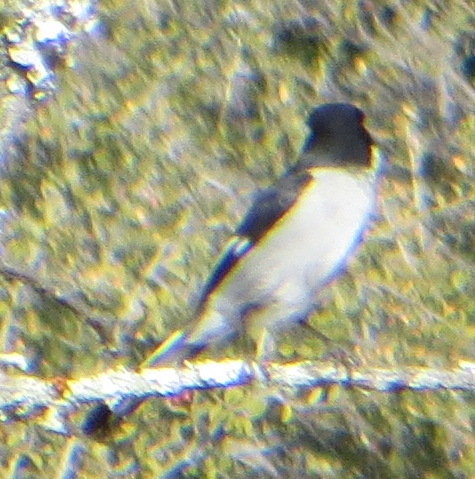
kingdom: Animalia
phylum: Chordata
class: Aves
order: Passeriformes
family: Muscicapidae
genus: Sigelus
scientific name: Sigelus silens
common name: Fiscal flycatcher
